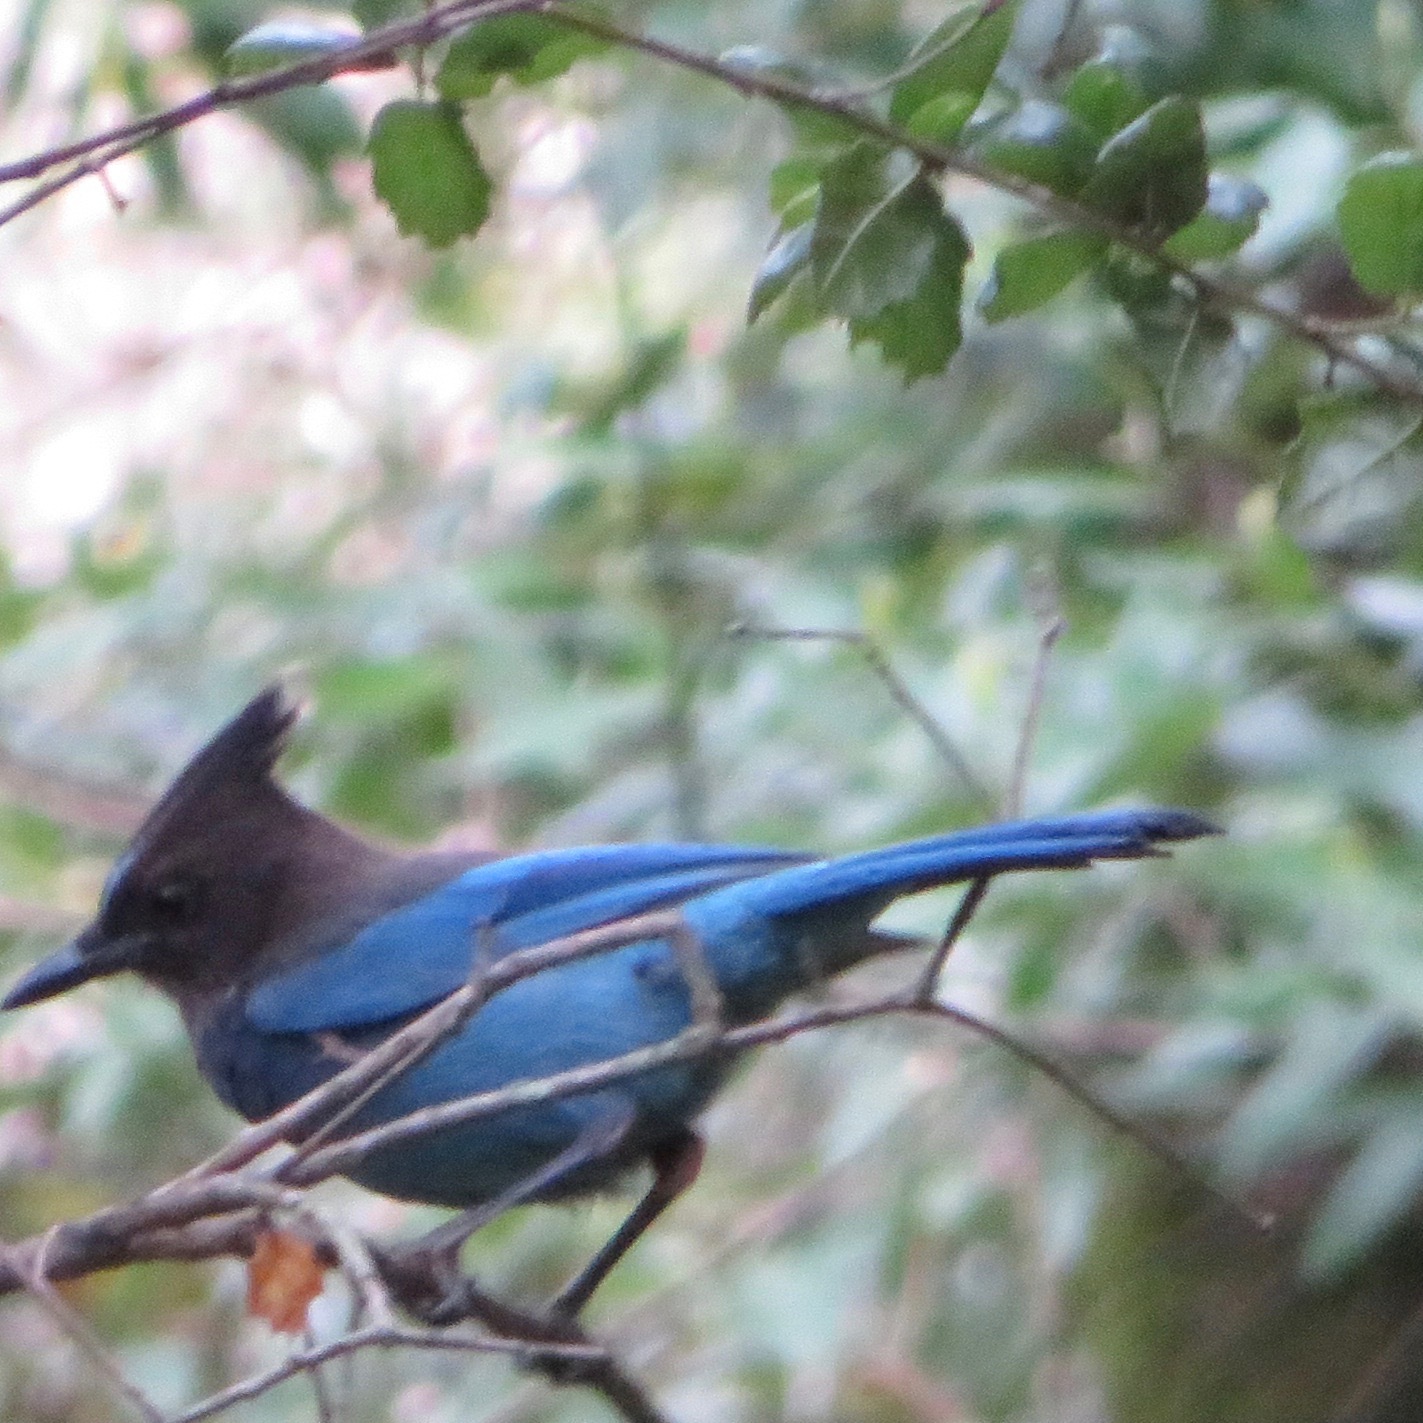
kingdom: Animalia
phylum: Chordata
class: Aves
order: Passeriformes
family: Corvidae
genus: Cyanocitta
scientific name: Cyanocitta stelleri
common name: Steller's jay
